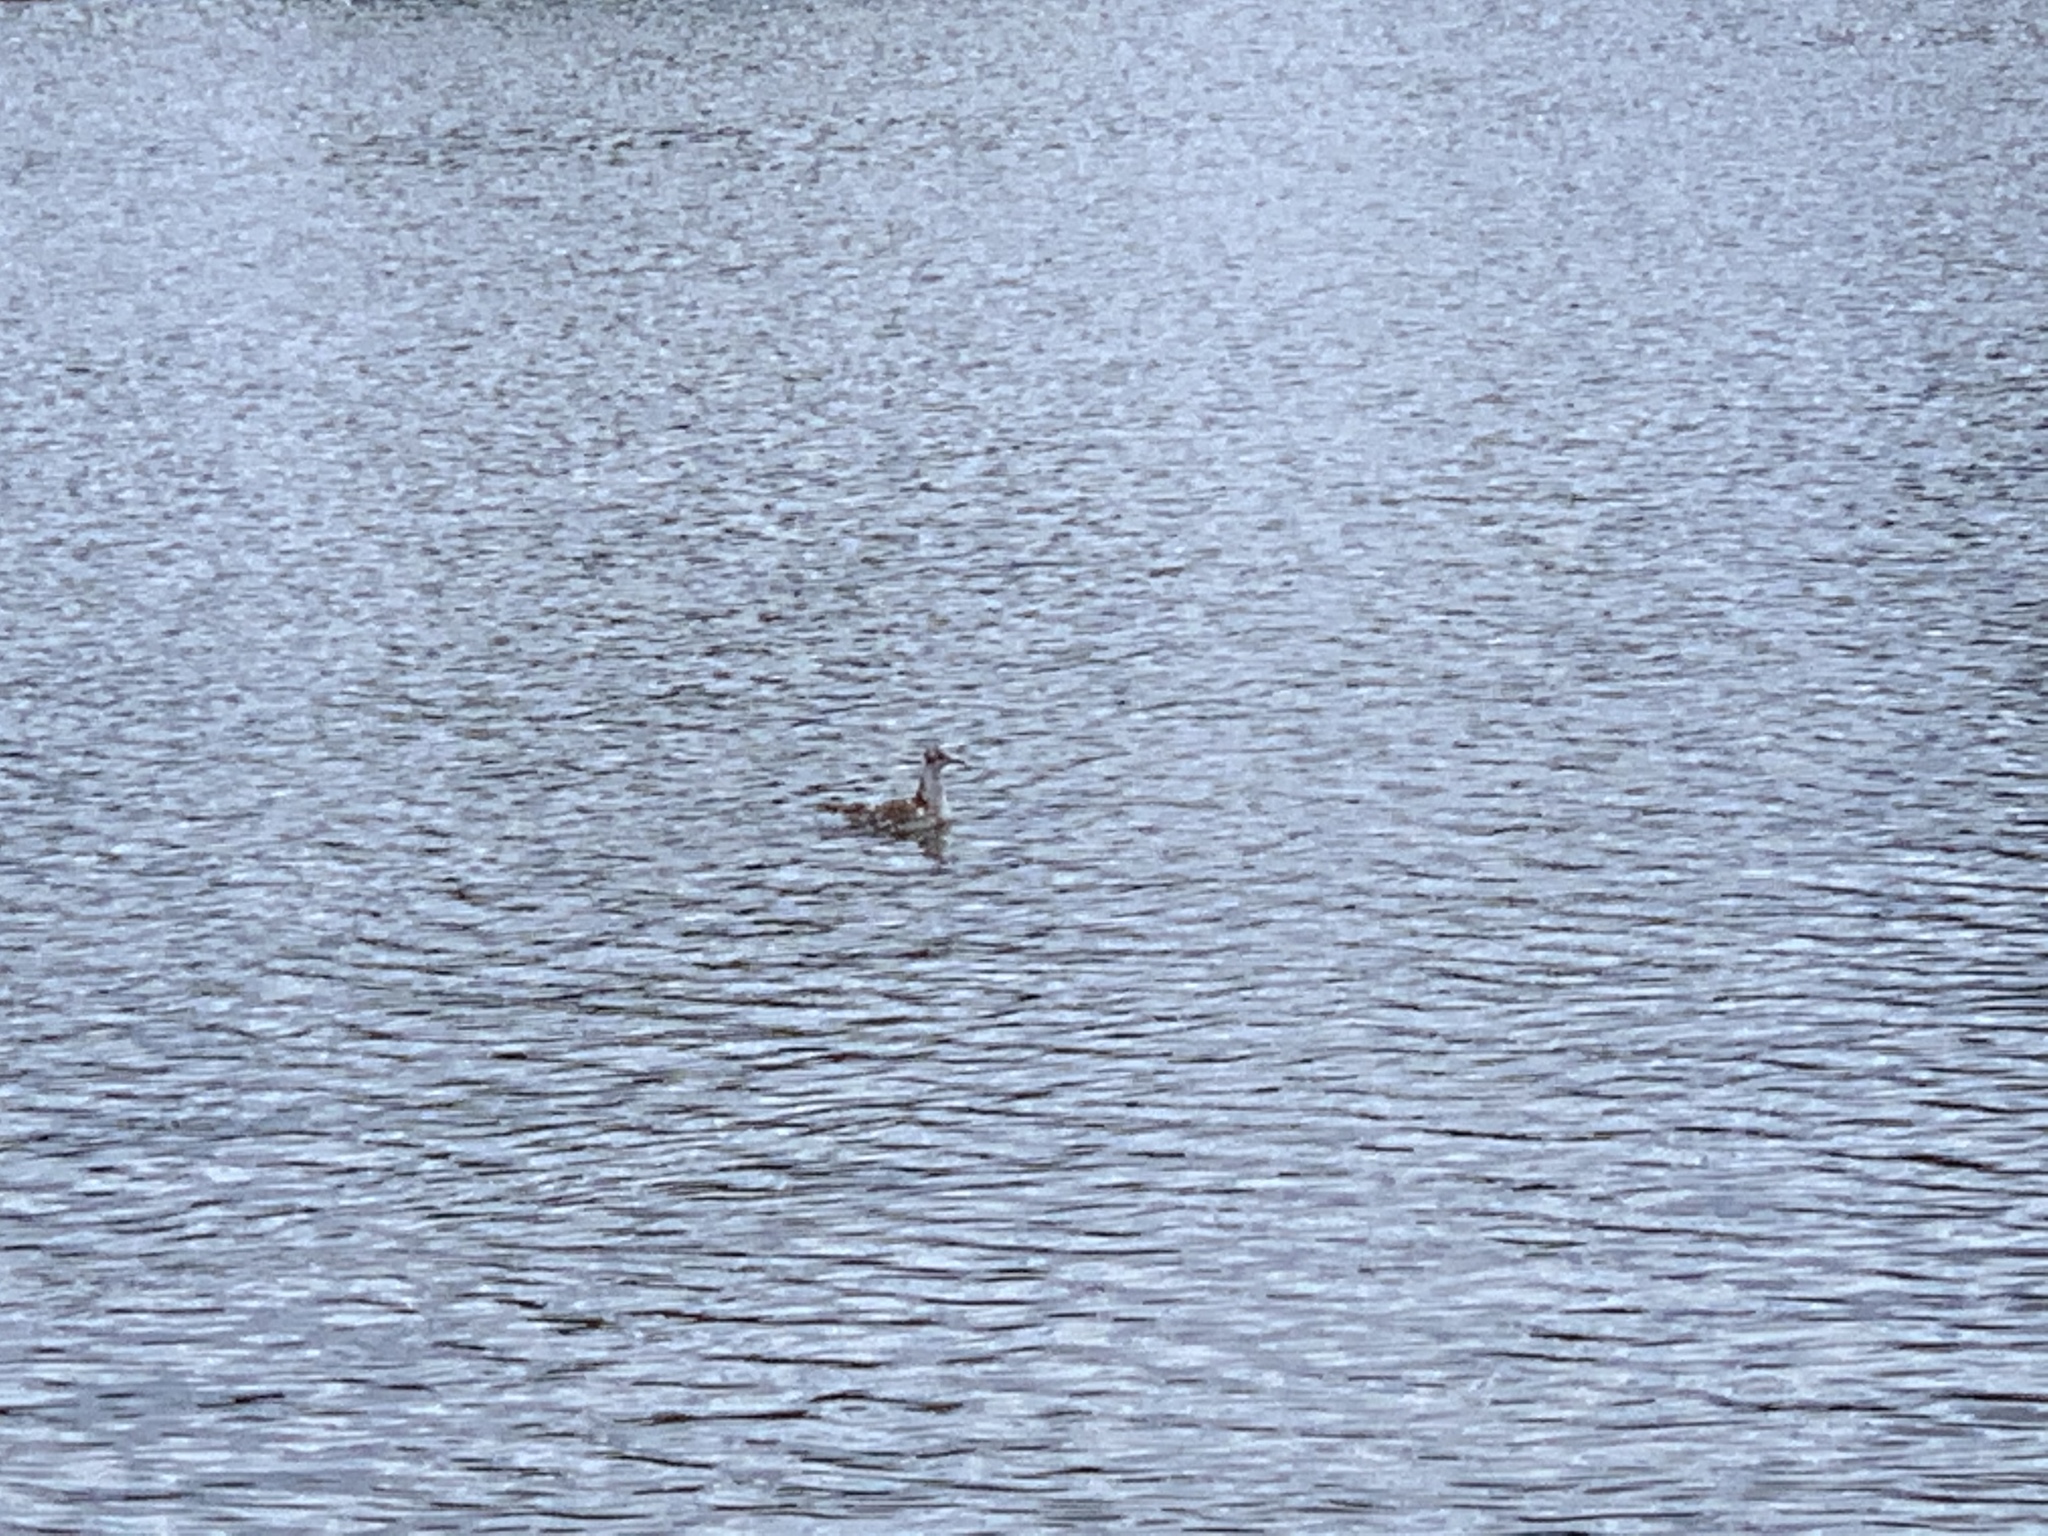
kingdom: Animalia
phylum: Chordata
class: Aves
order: Charadriiformes
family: Laridae
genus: Chroicocephalus
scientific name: Chroicocephalus ridibundus
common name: Black-headed gull
